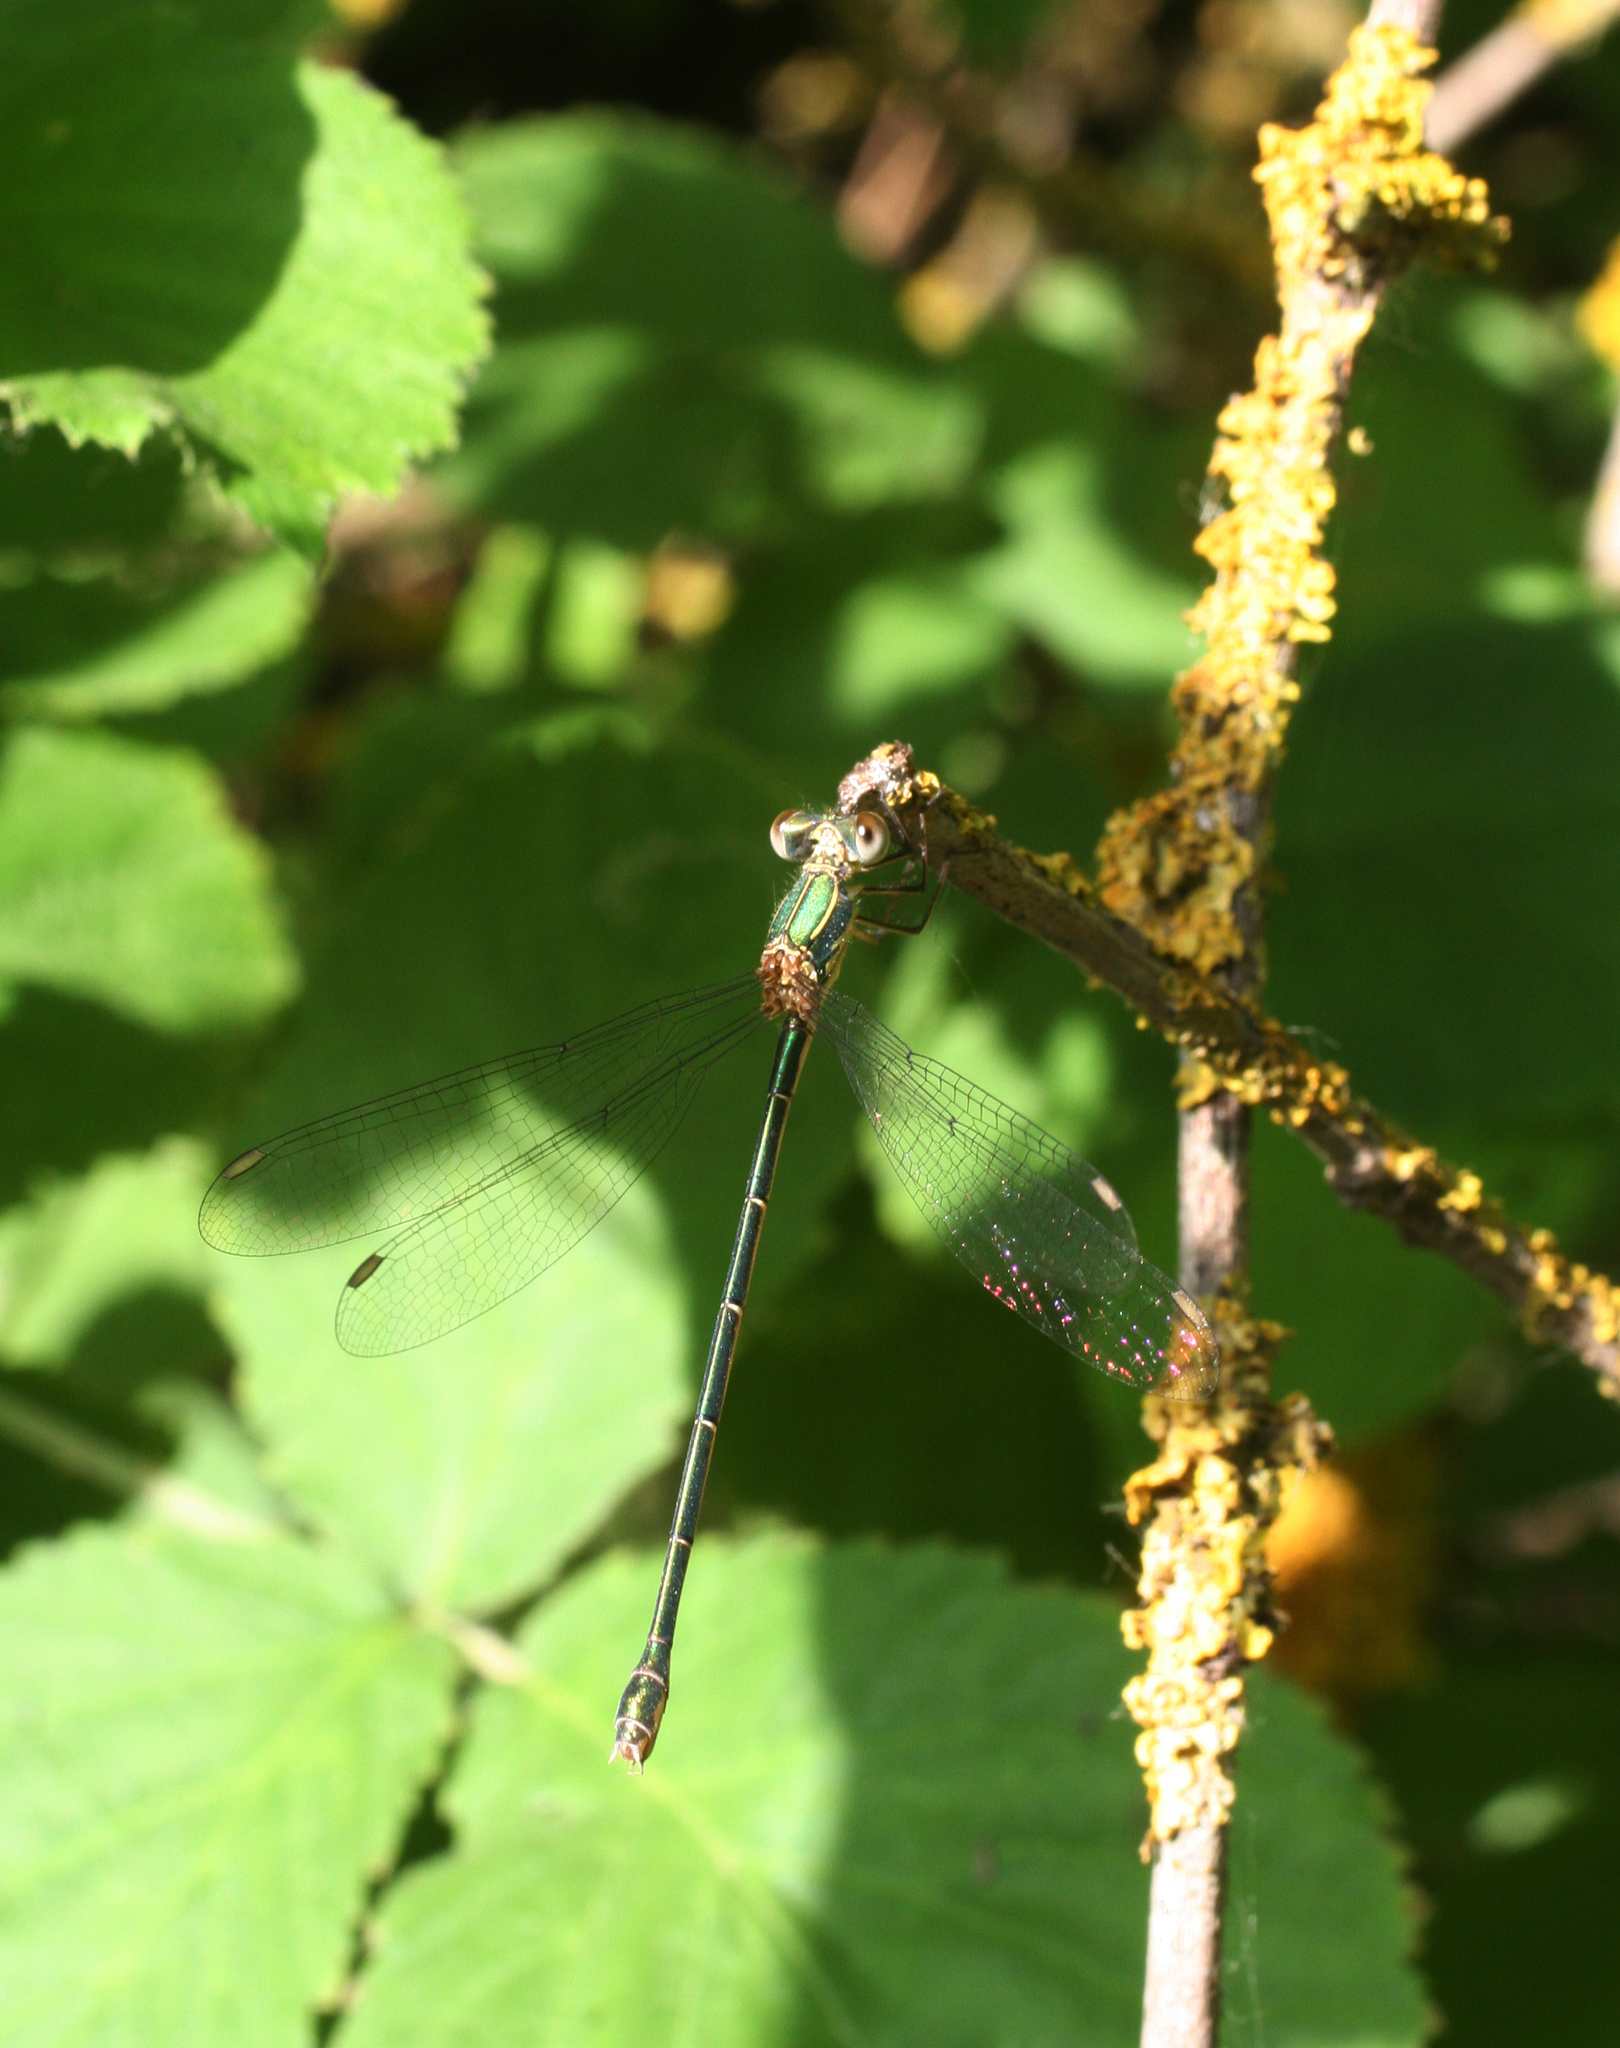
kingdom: Animalia
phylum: Arthropoda
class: Insecta
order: Odonata
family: Lestidae
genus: Chalcolestes
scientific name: Chalcolestes parvidens
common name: Eastern willow spreadwing
